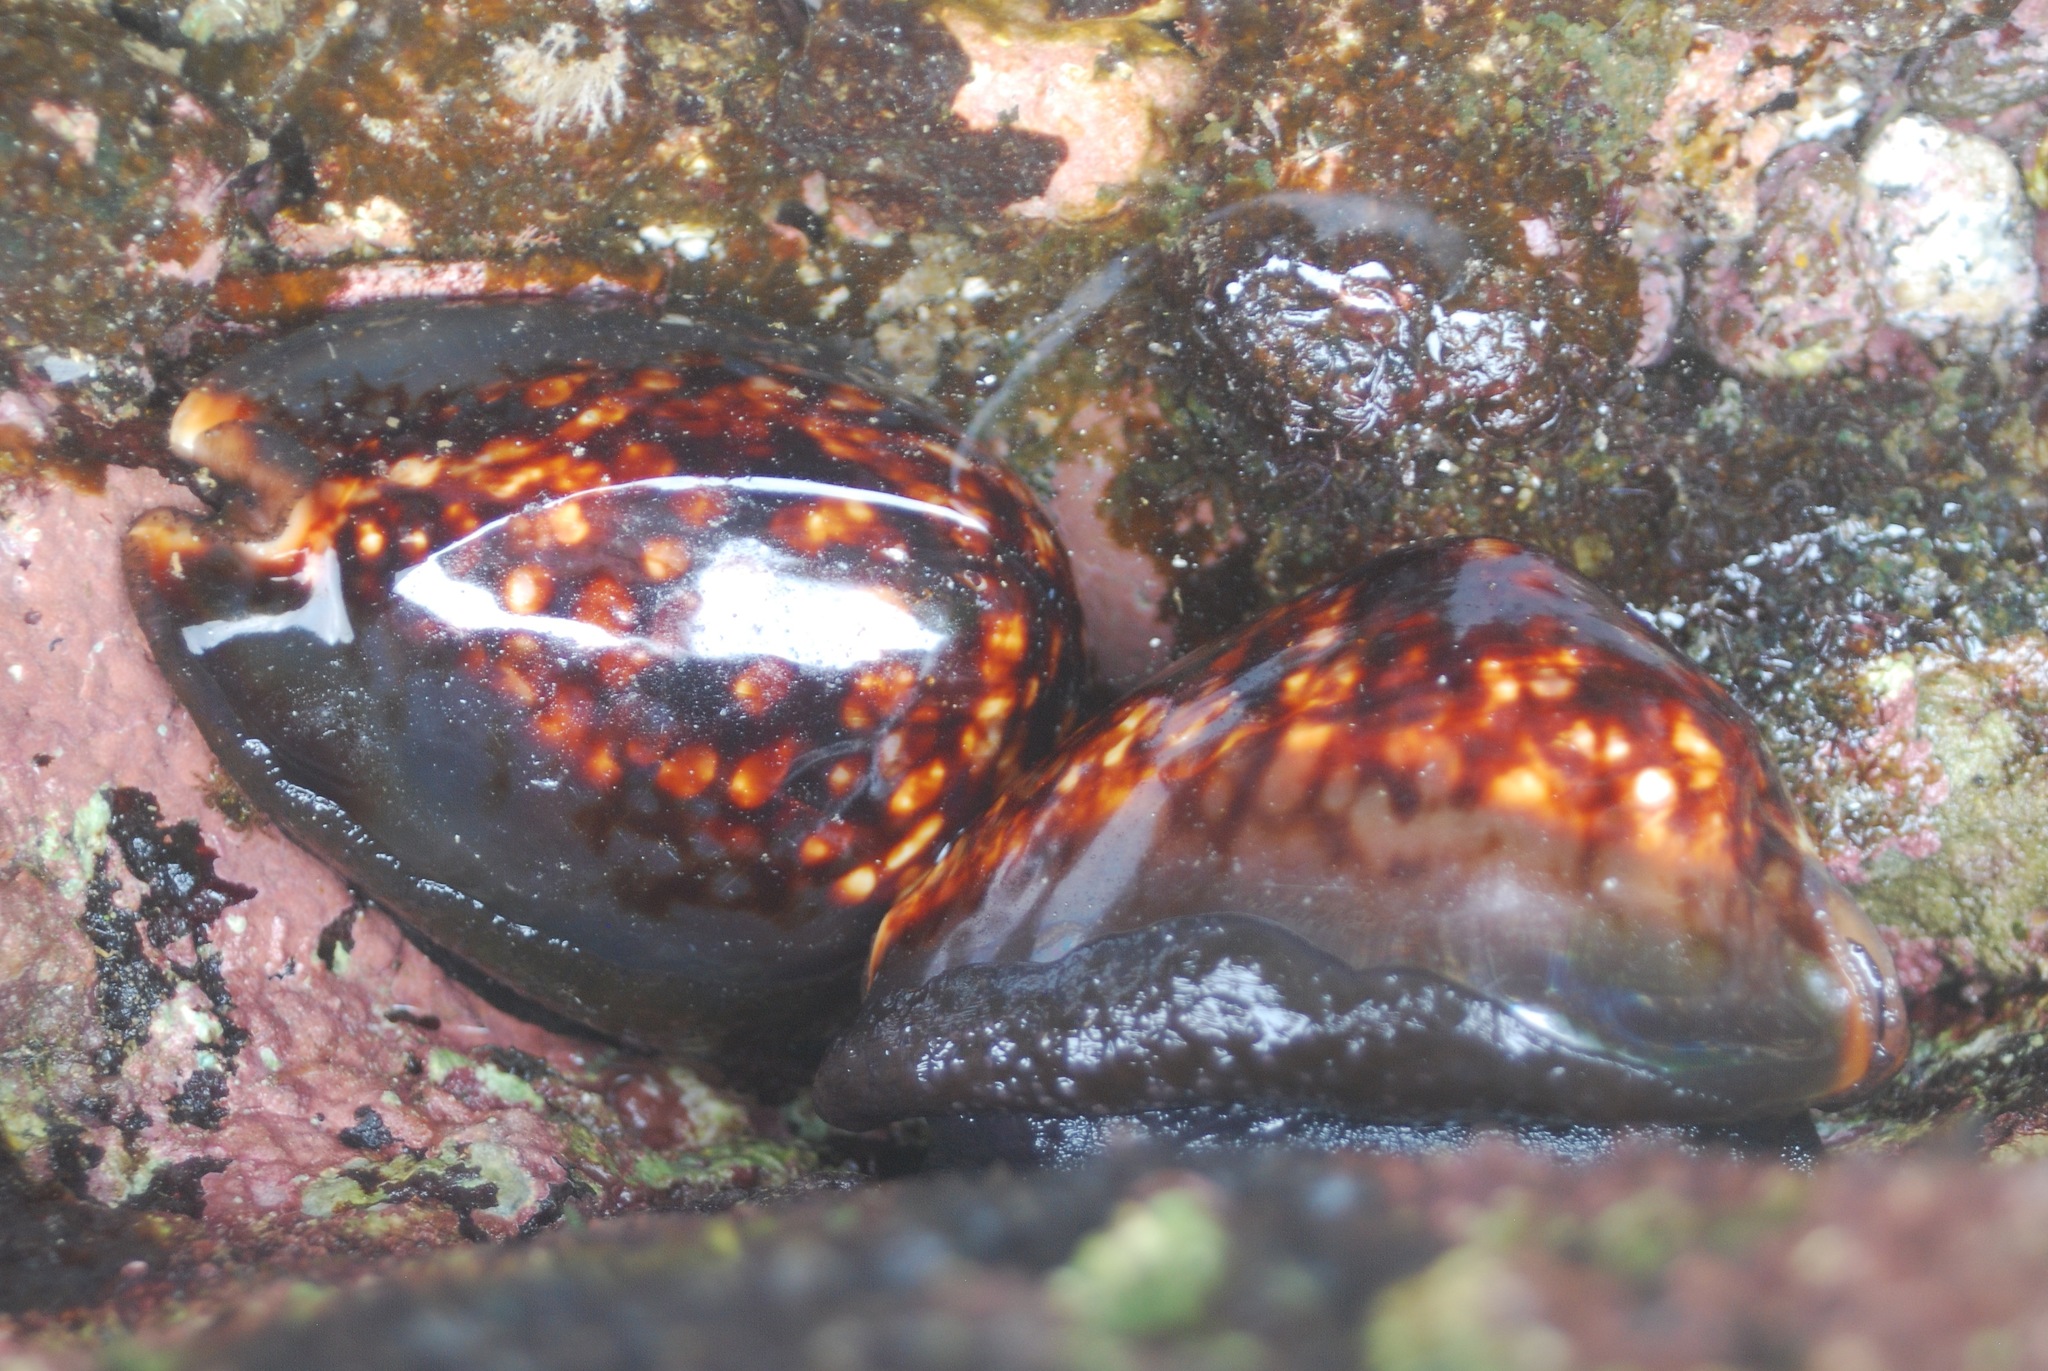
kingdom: Animalia
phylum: Mollusca
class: Gastropoda
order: Littorinimorpha
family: Cypraeidae
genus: Mauritia
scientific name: Mauritia mauritiana
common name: Hump-backed cowrie
